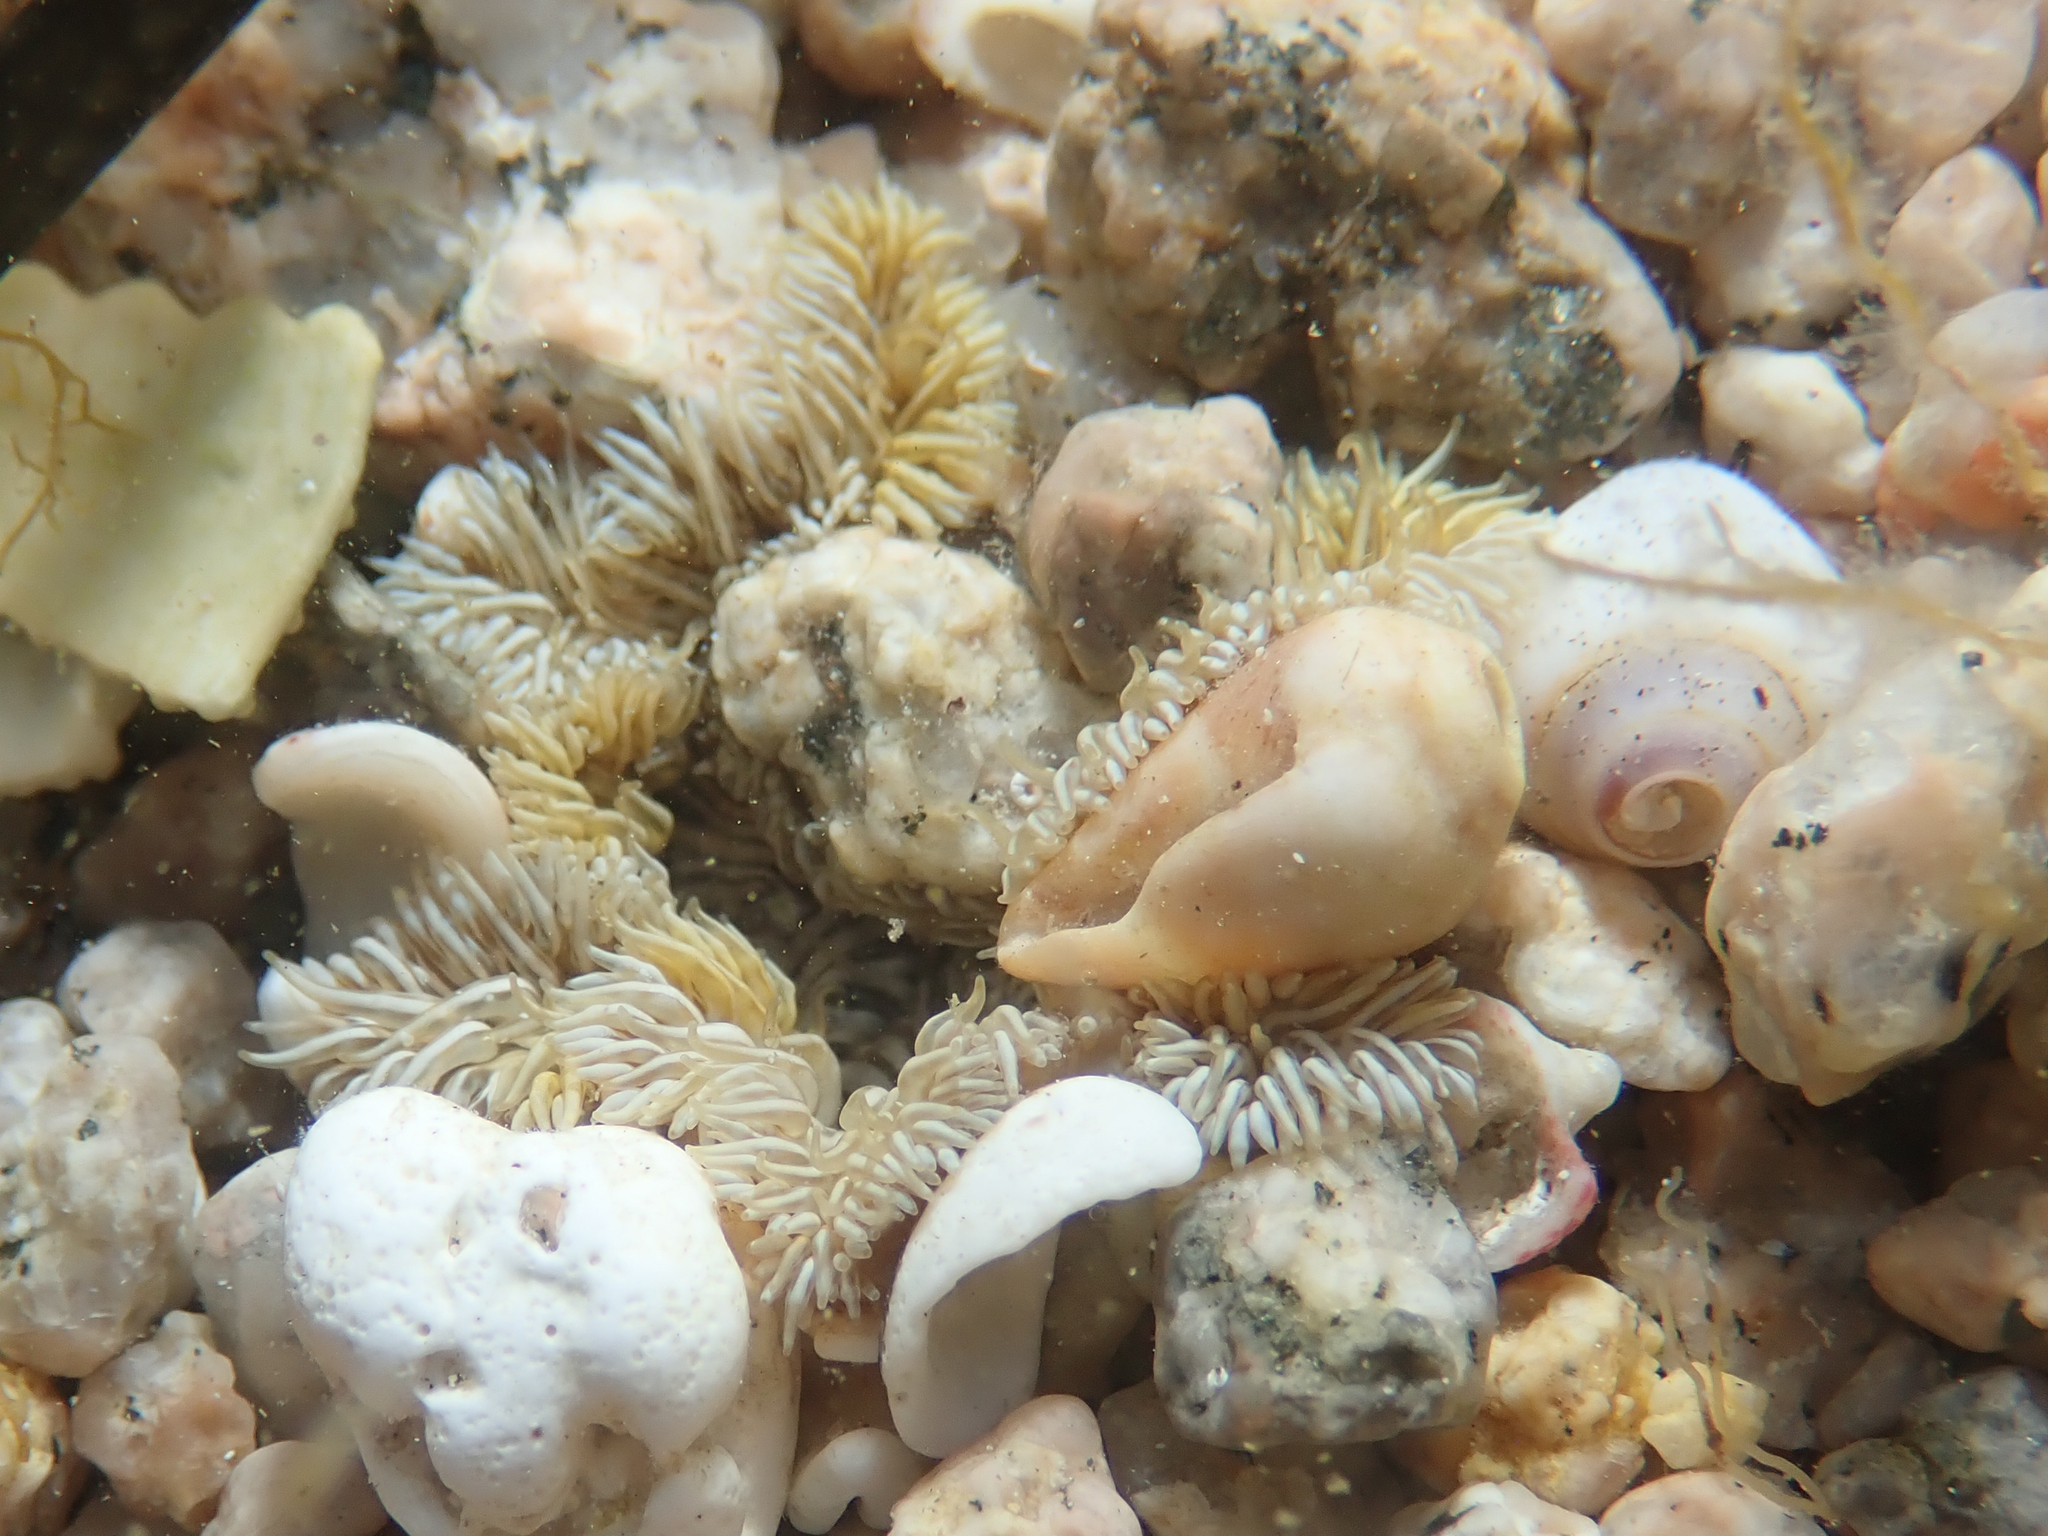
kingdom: Animalia
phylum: Cnidaria
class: Anthozoa
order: Actiniaria
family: Sagartiidae
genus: Cereus
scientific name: Cereus pedunculatus
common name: Daisy anemone
